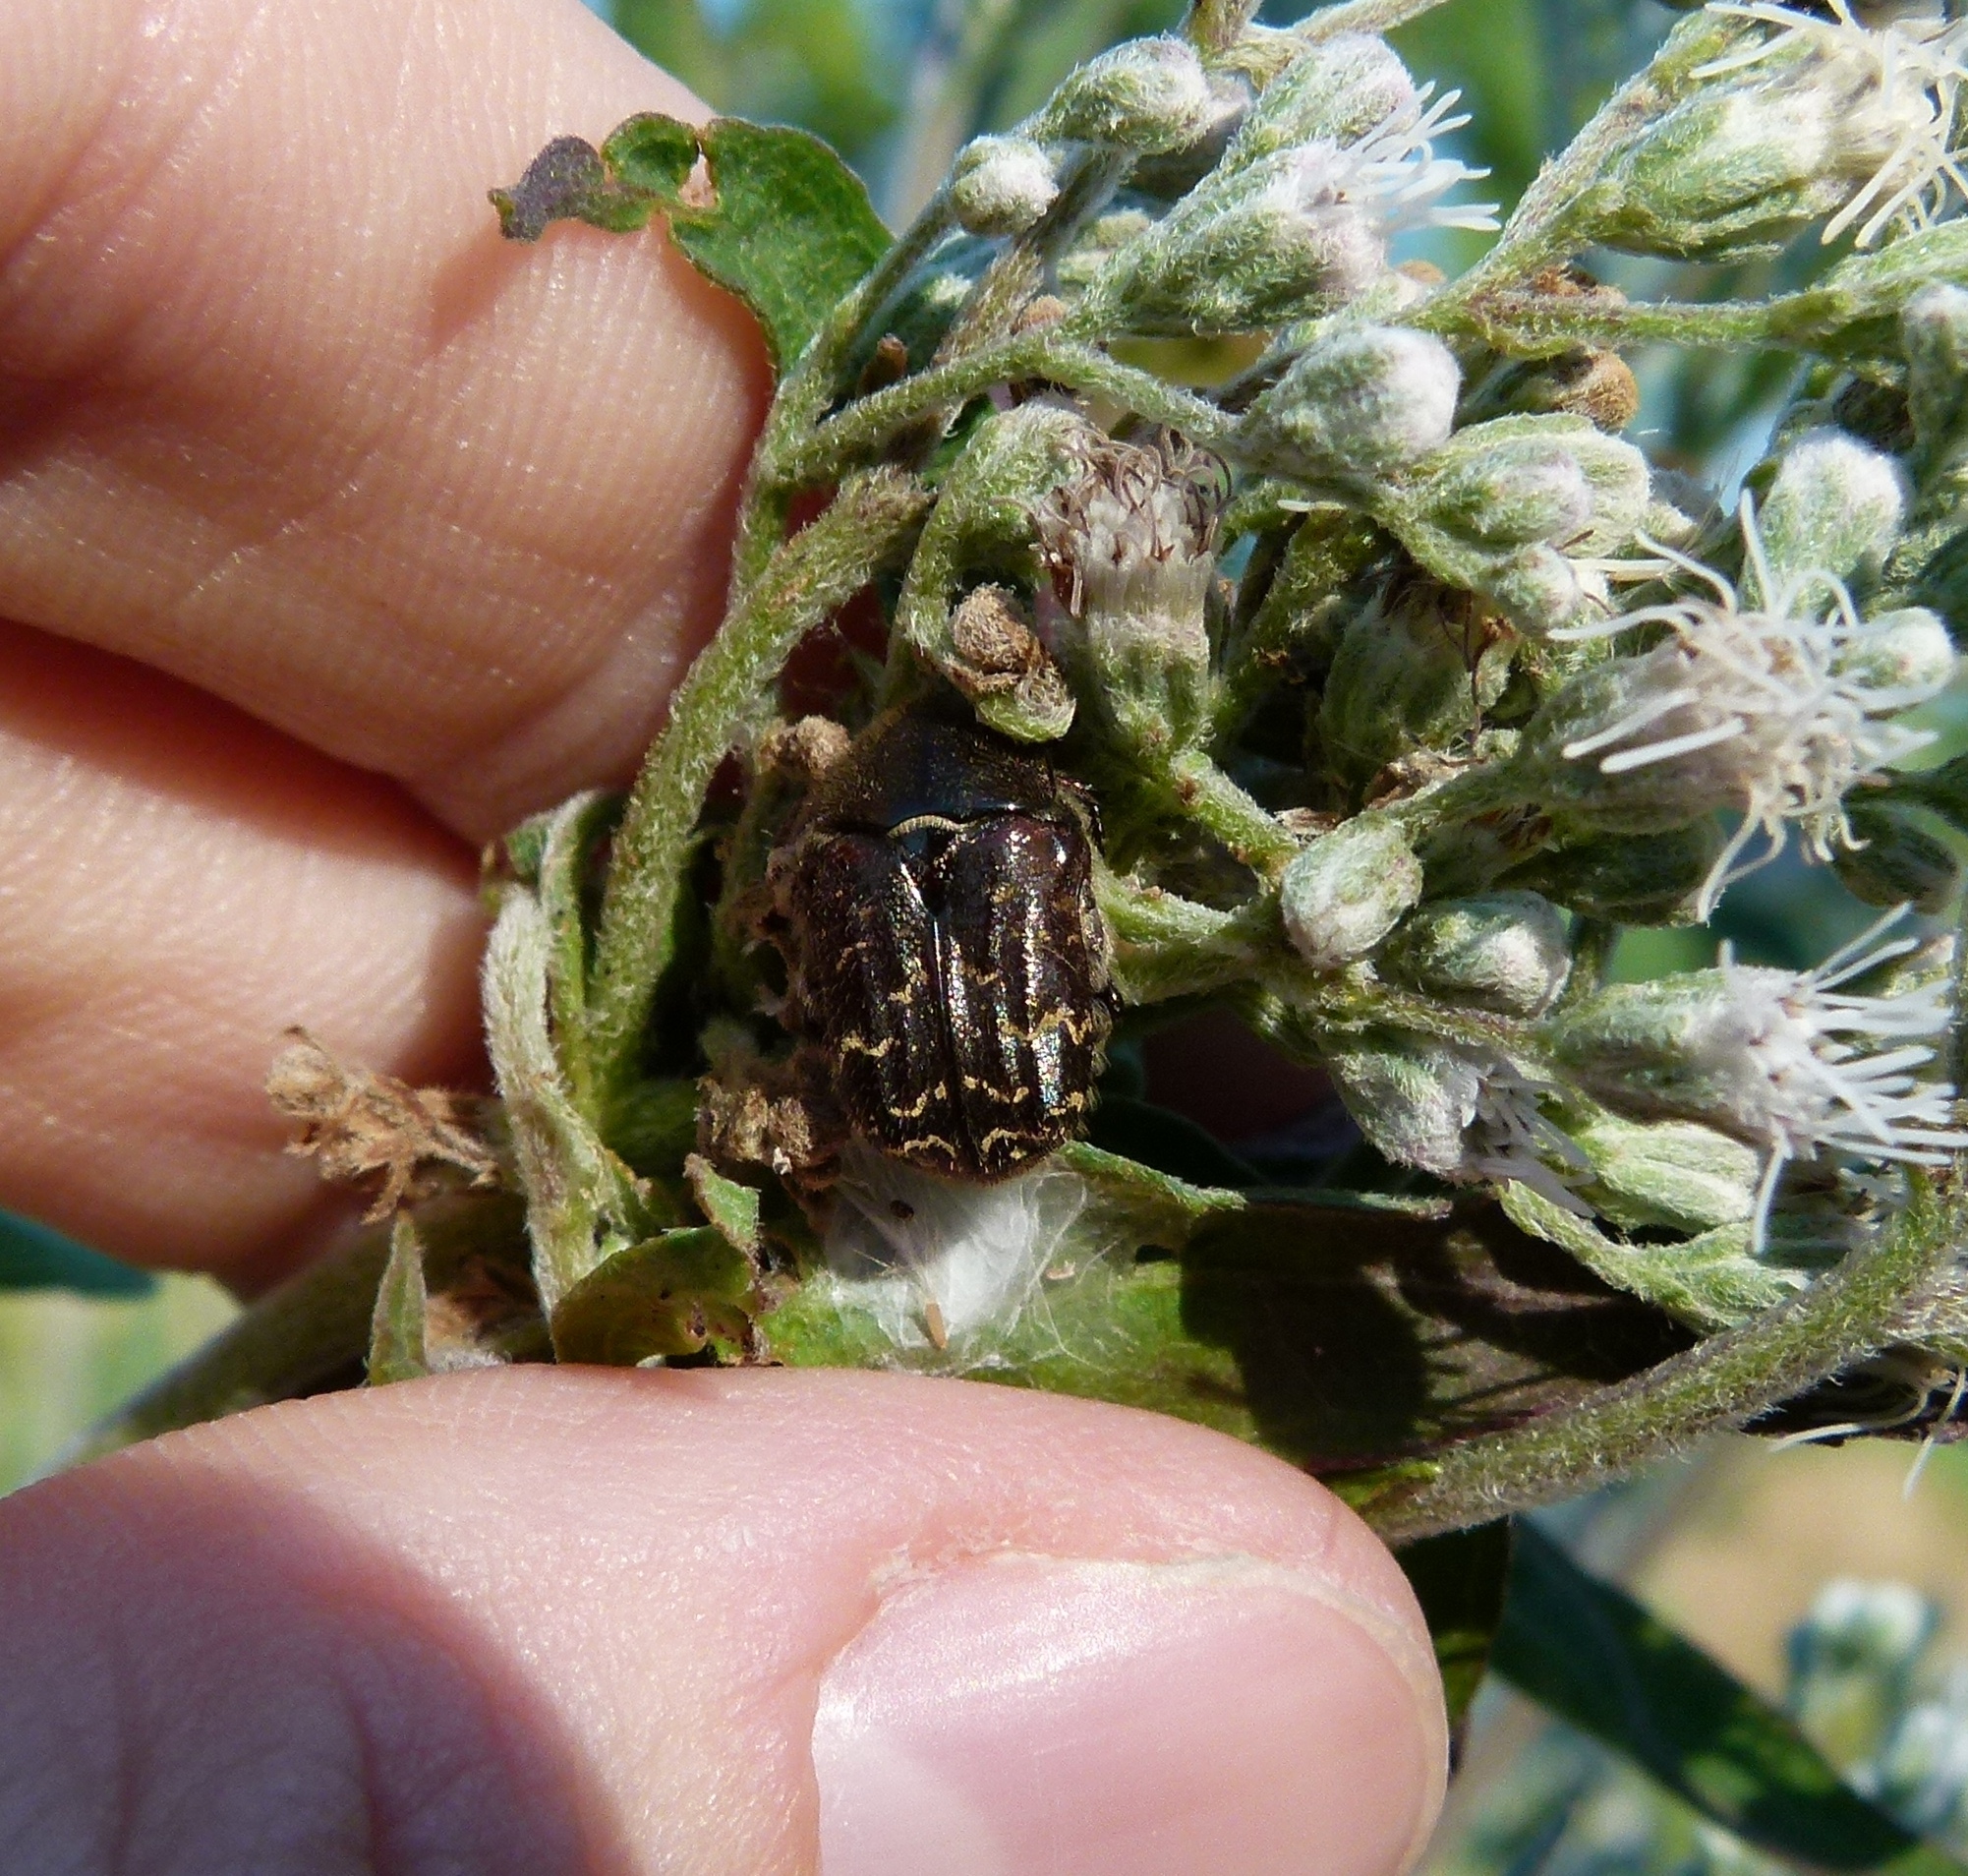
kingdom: Animalia
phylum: Arthropoda
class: Insecta
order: Coleoptera
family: Scarabaeidae
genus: Euphoria
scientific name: Euphoria sepulcralis
